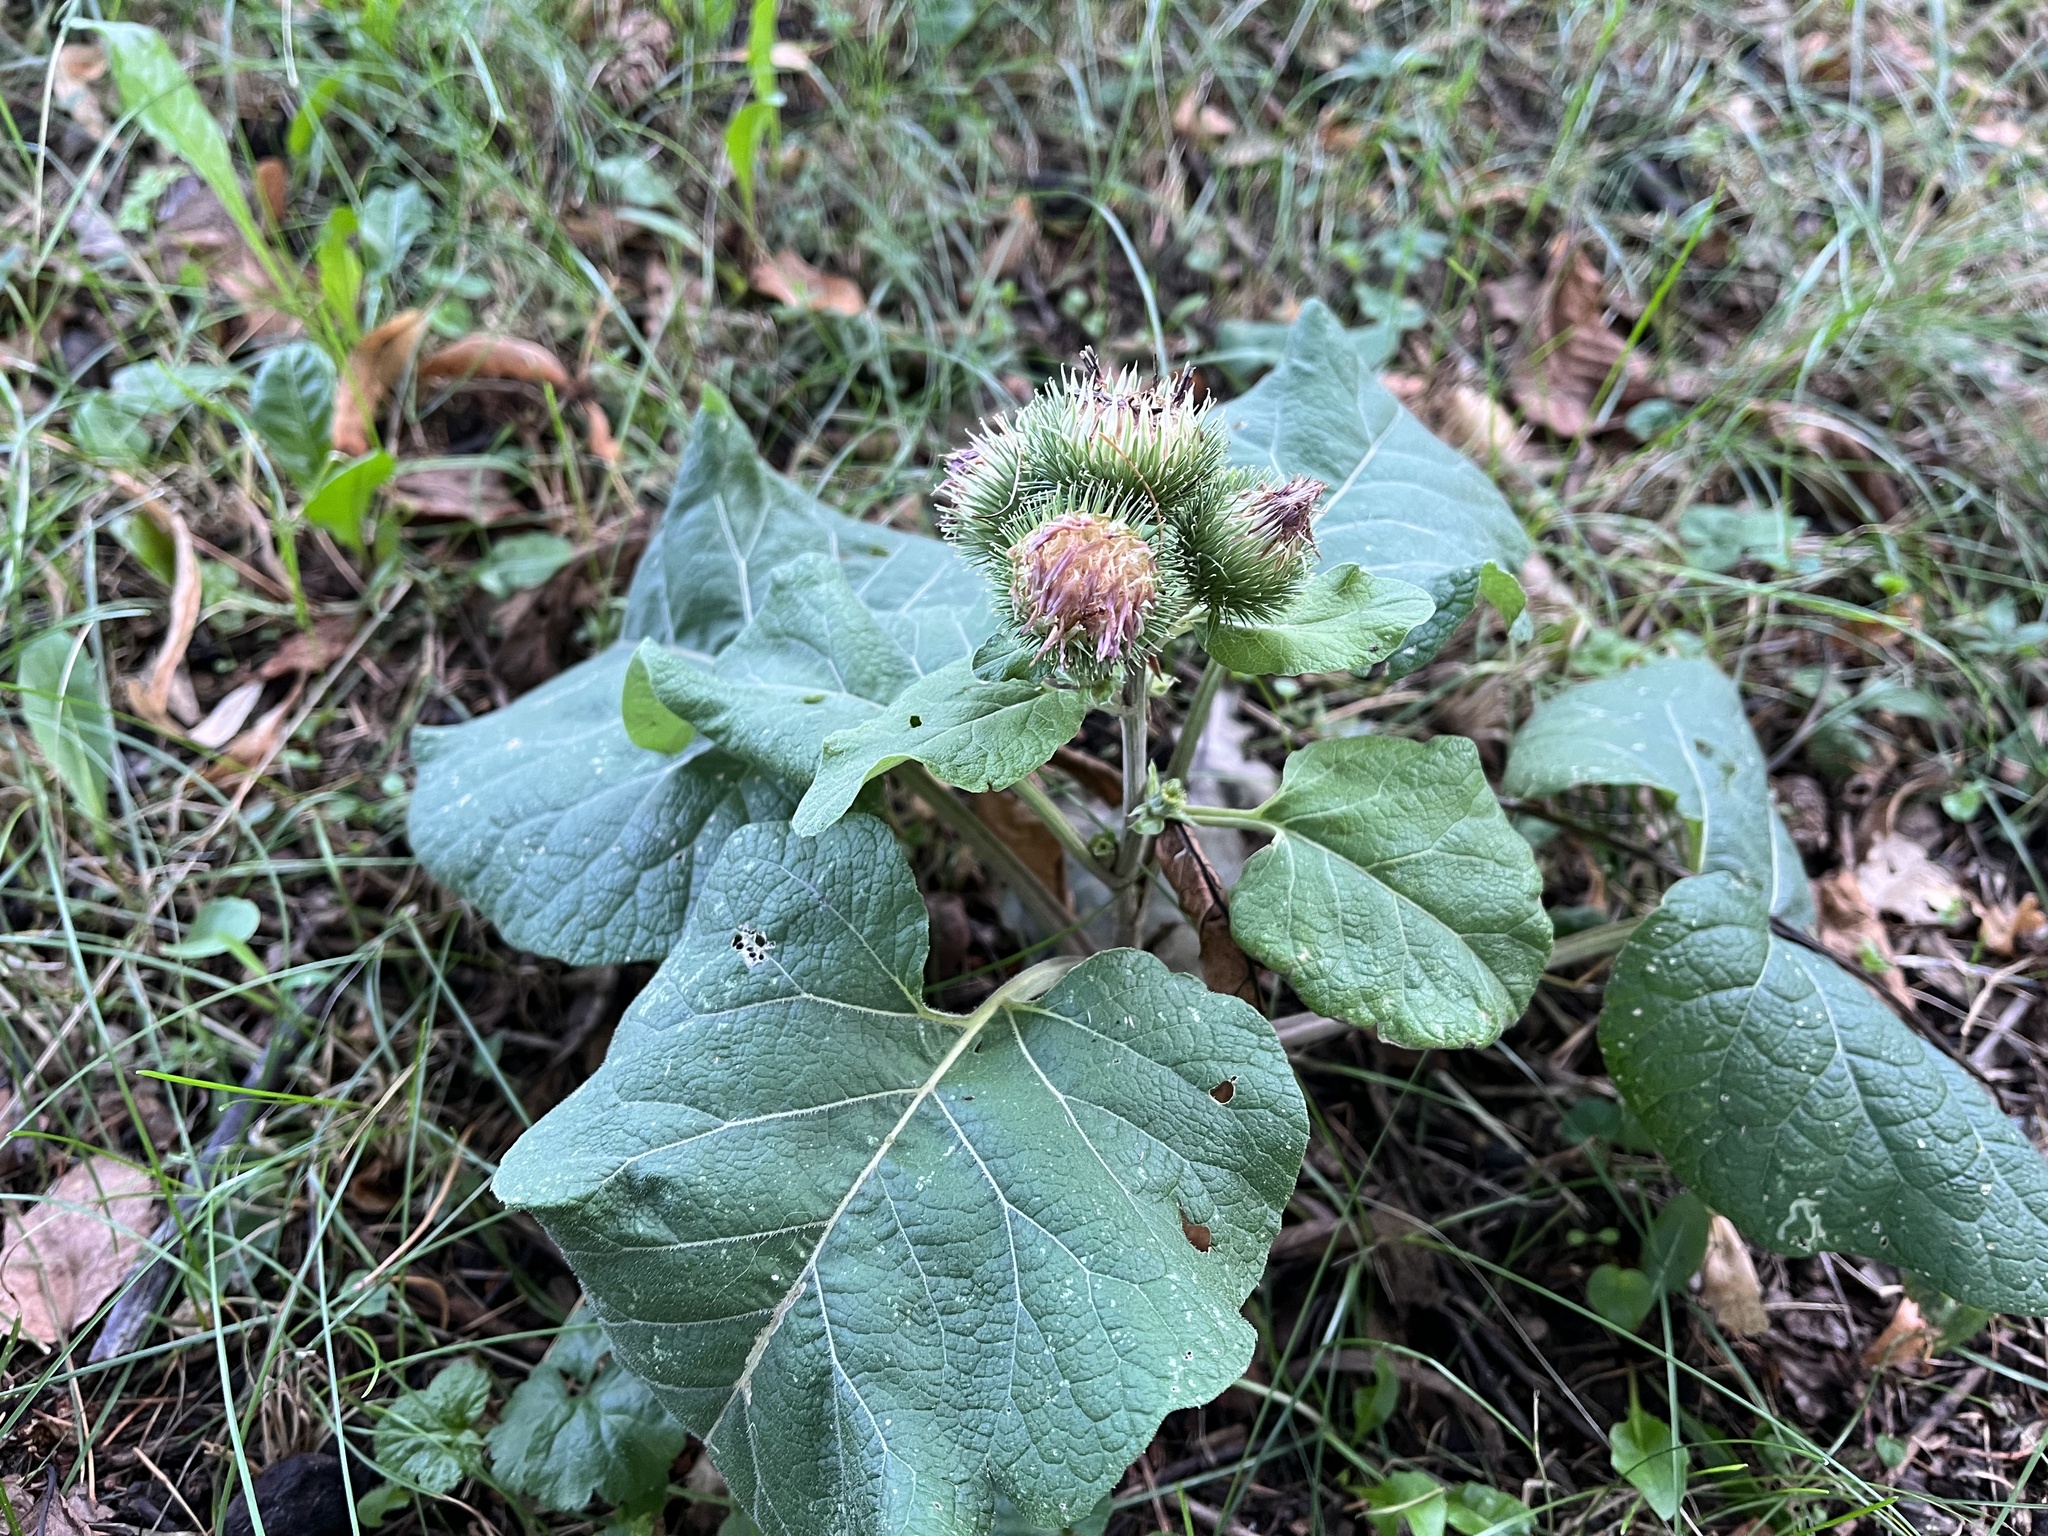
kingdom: Plantae
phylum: Tracheophyta
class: Magnoliopsida
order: Asterales
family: Asteraceae
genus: Arctium
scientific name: Arctium lappa
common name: Greater burdock
